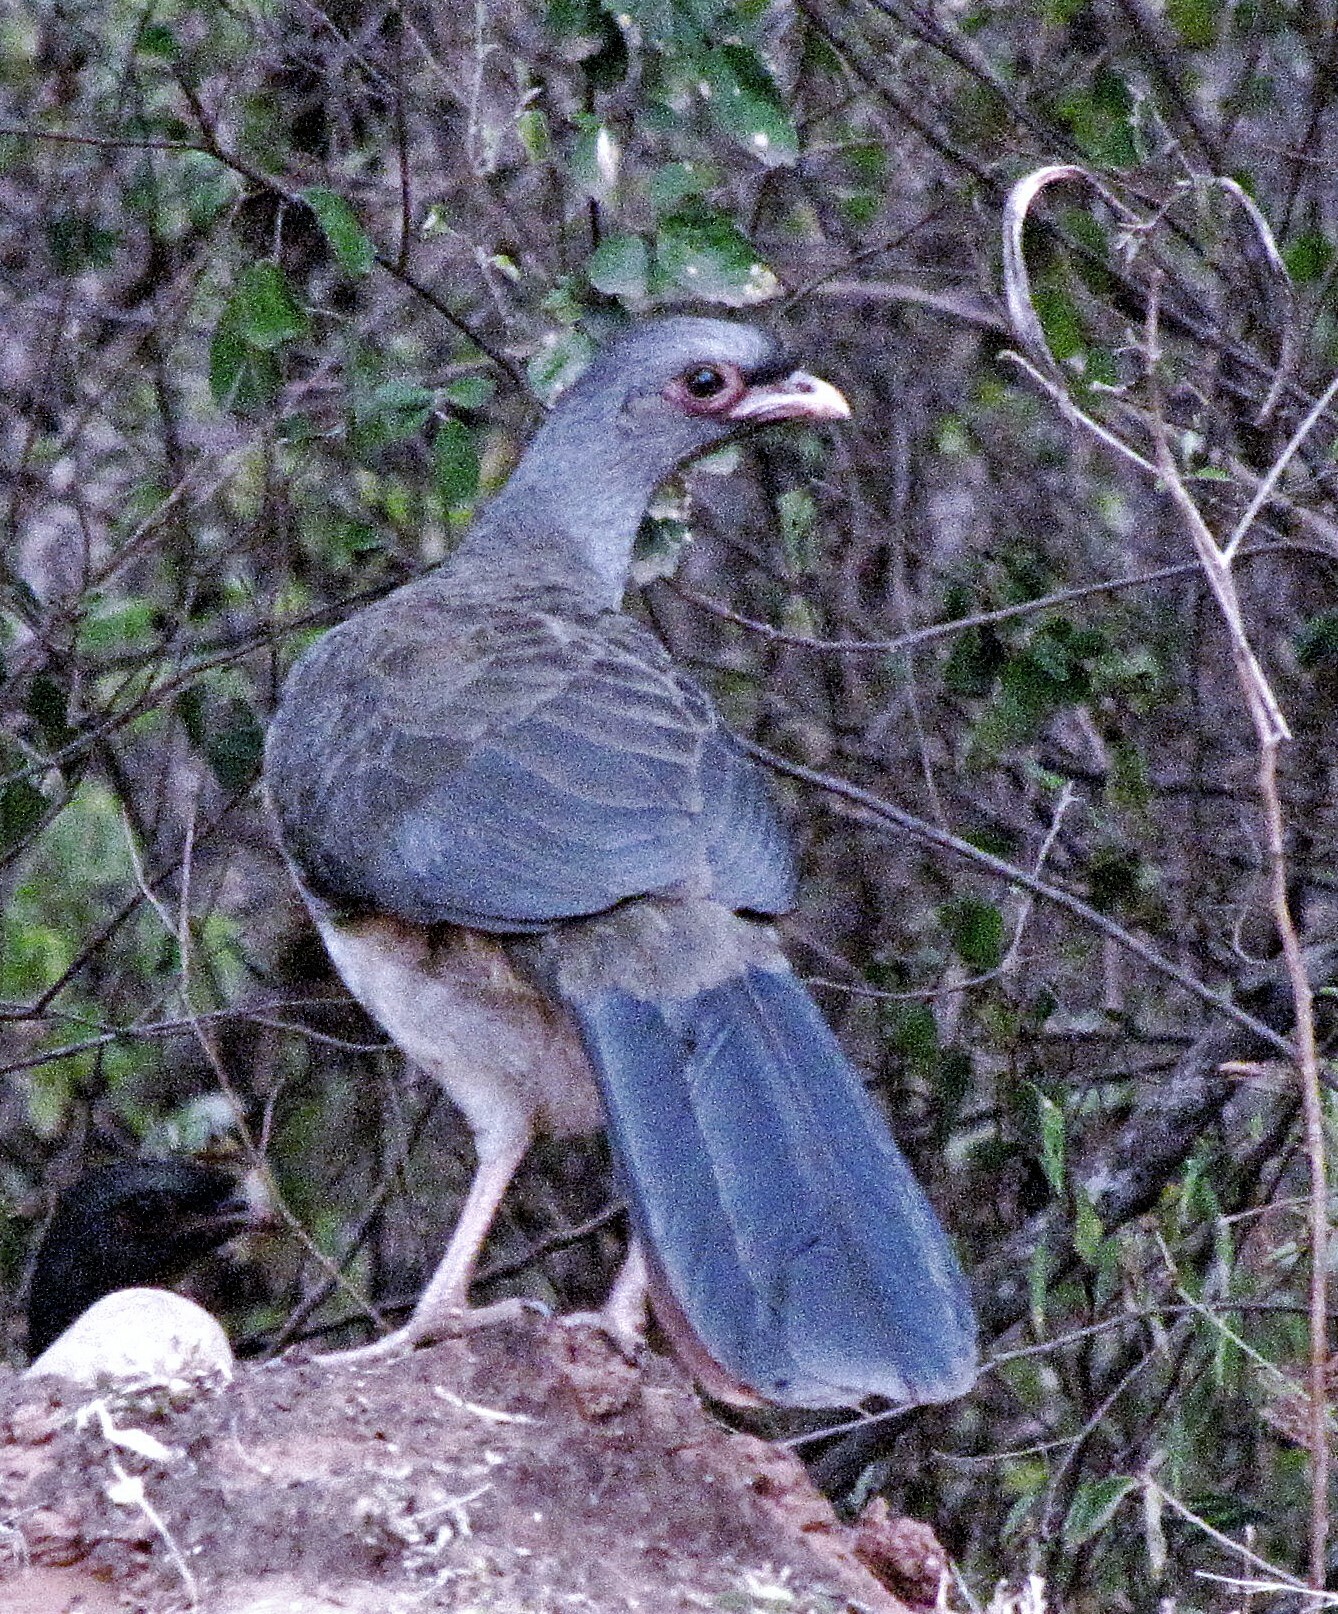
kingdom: Animalia
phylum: Chordata
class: Aves
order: Galliformes
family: Cracidae
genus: Ortalis
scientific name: Ortalis canicollis
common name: Chaco chachalaca
